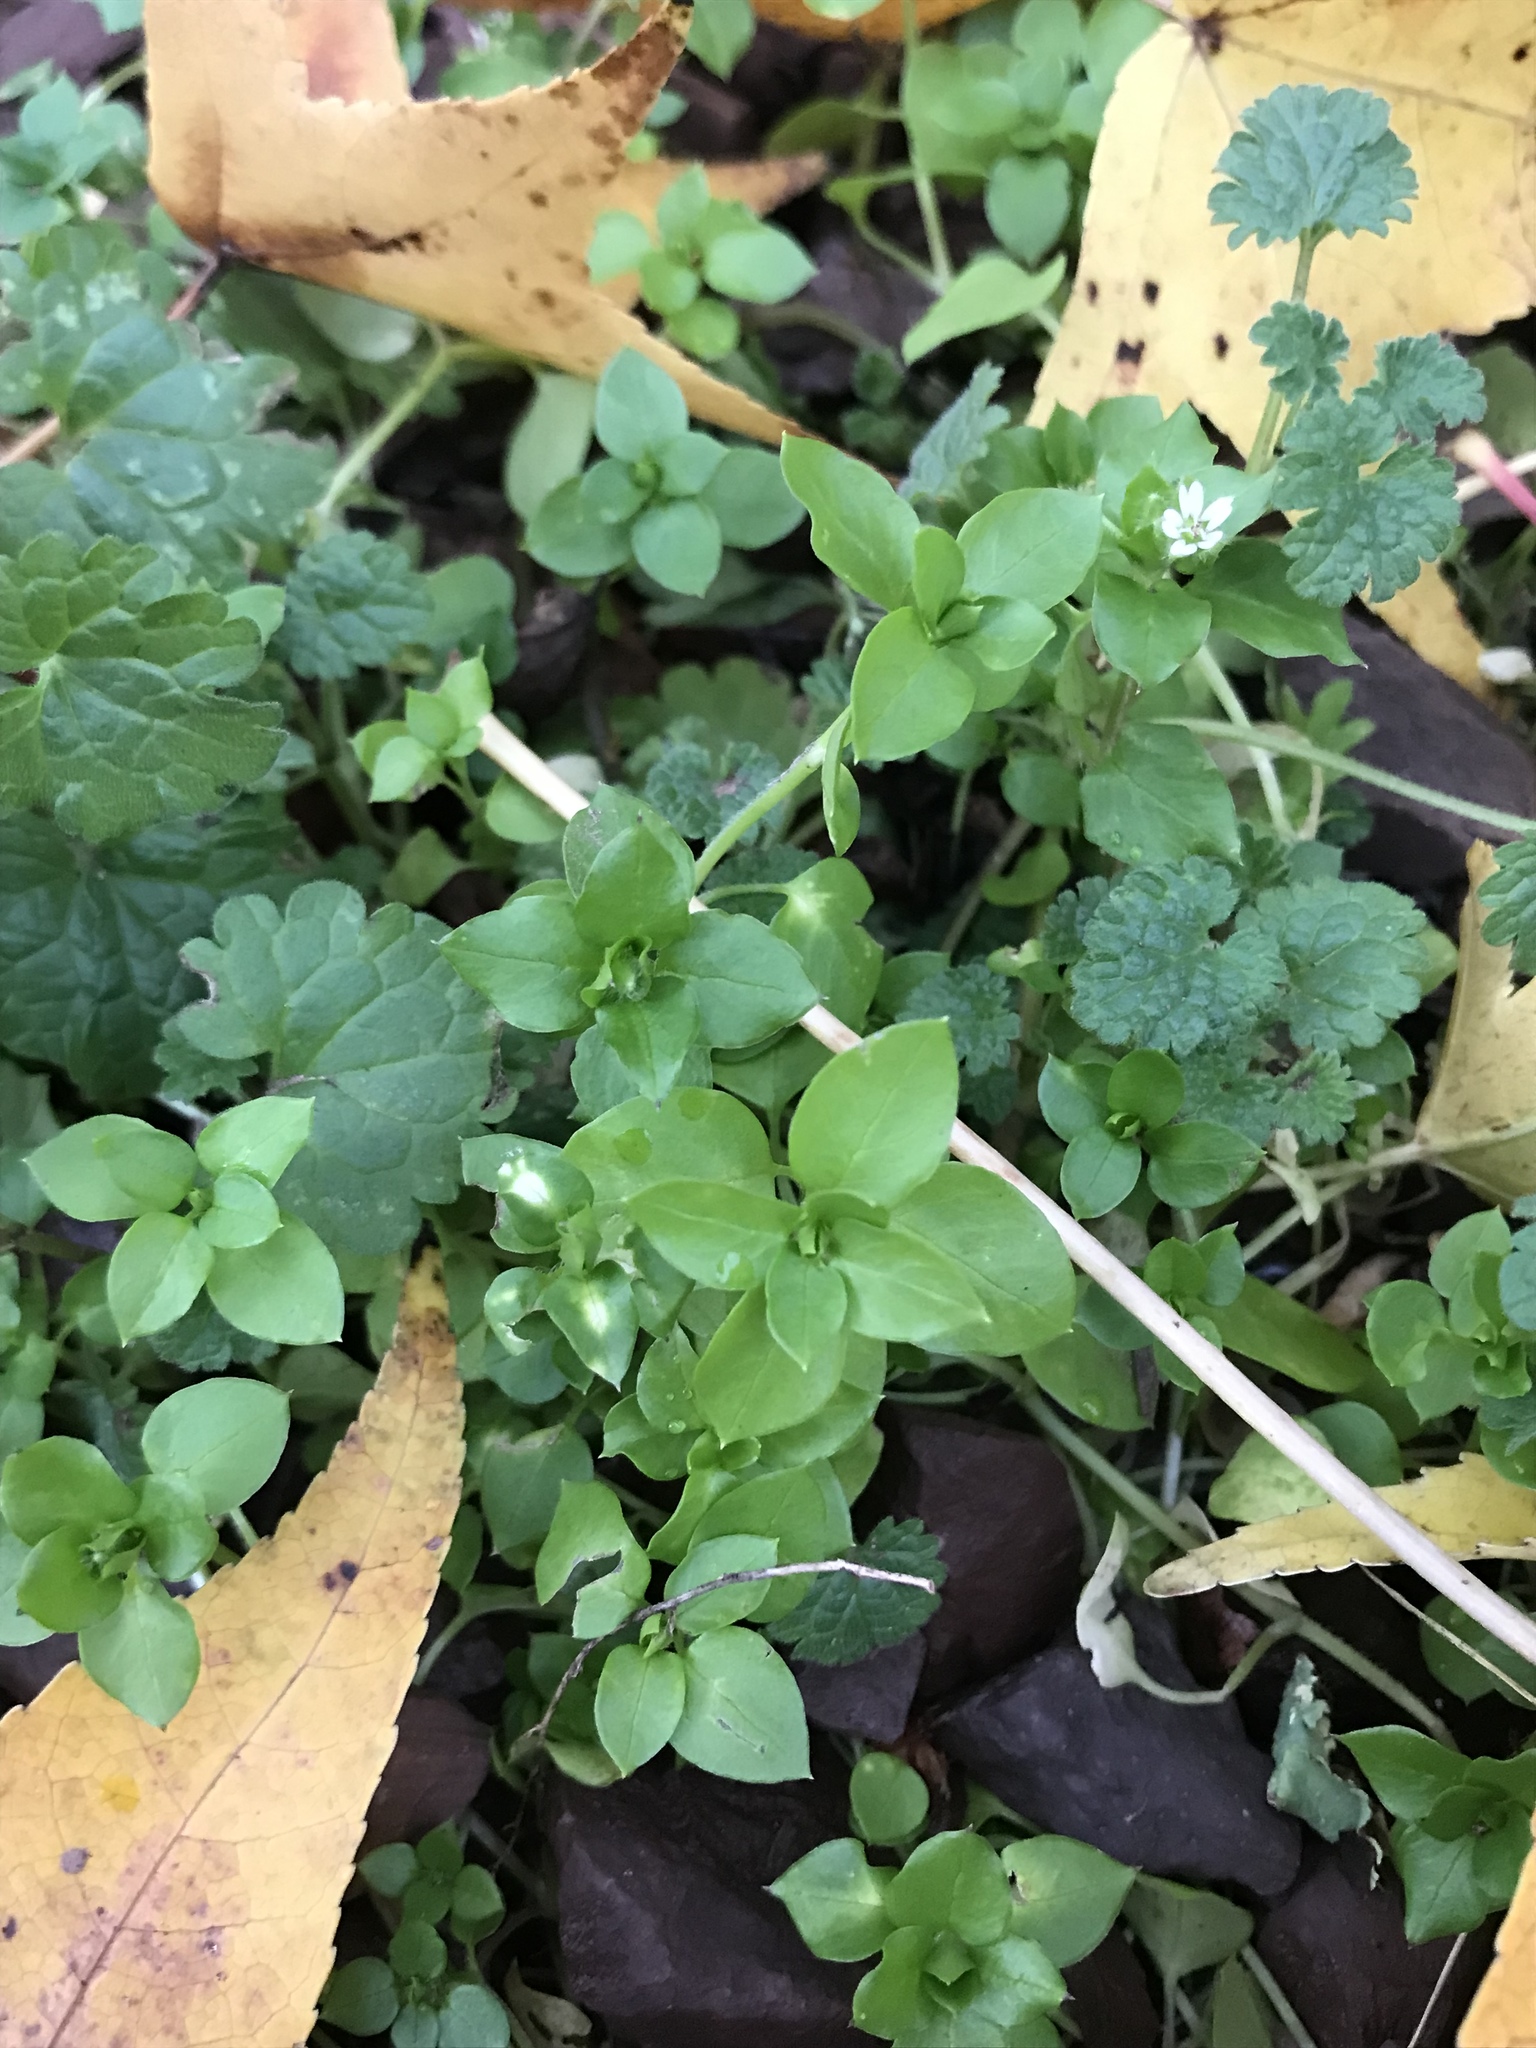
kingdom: Plantae
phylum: Tracheophyta
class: Magnoliopsida
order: Caryophyllales
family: Caryophyllaceae
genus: Stellaria
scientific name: Stellaria media
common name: Common chickweed
